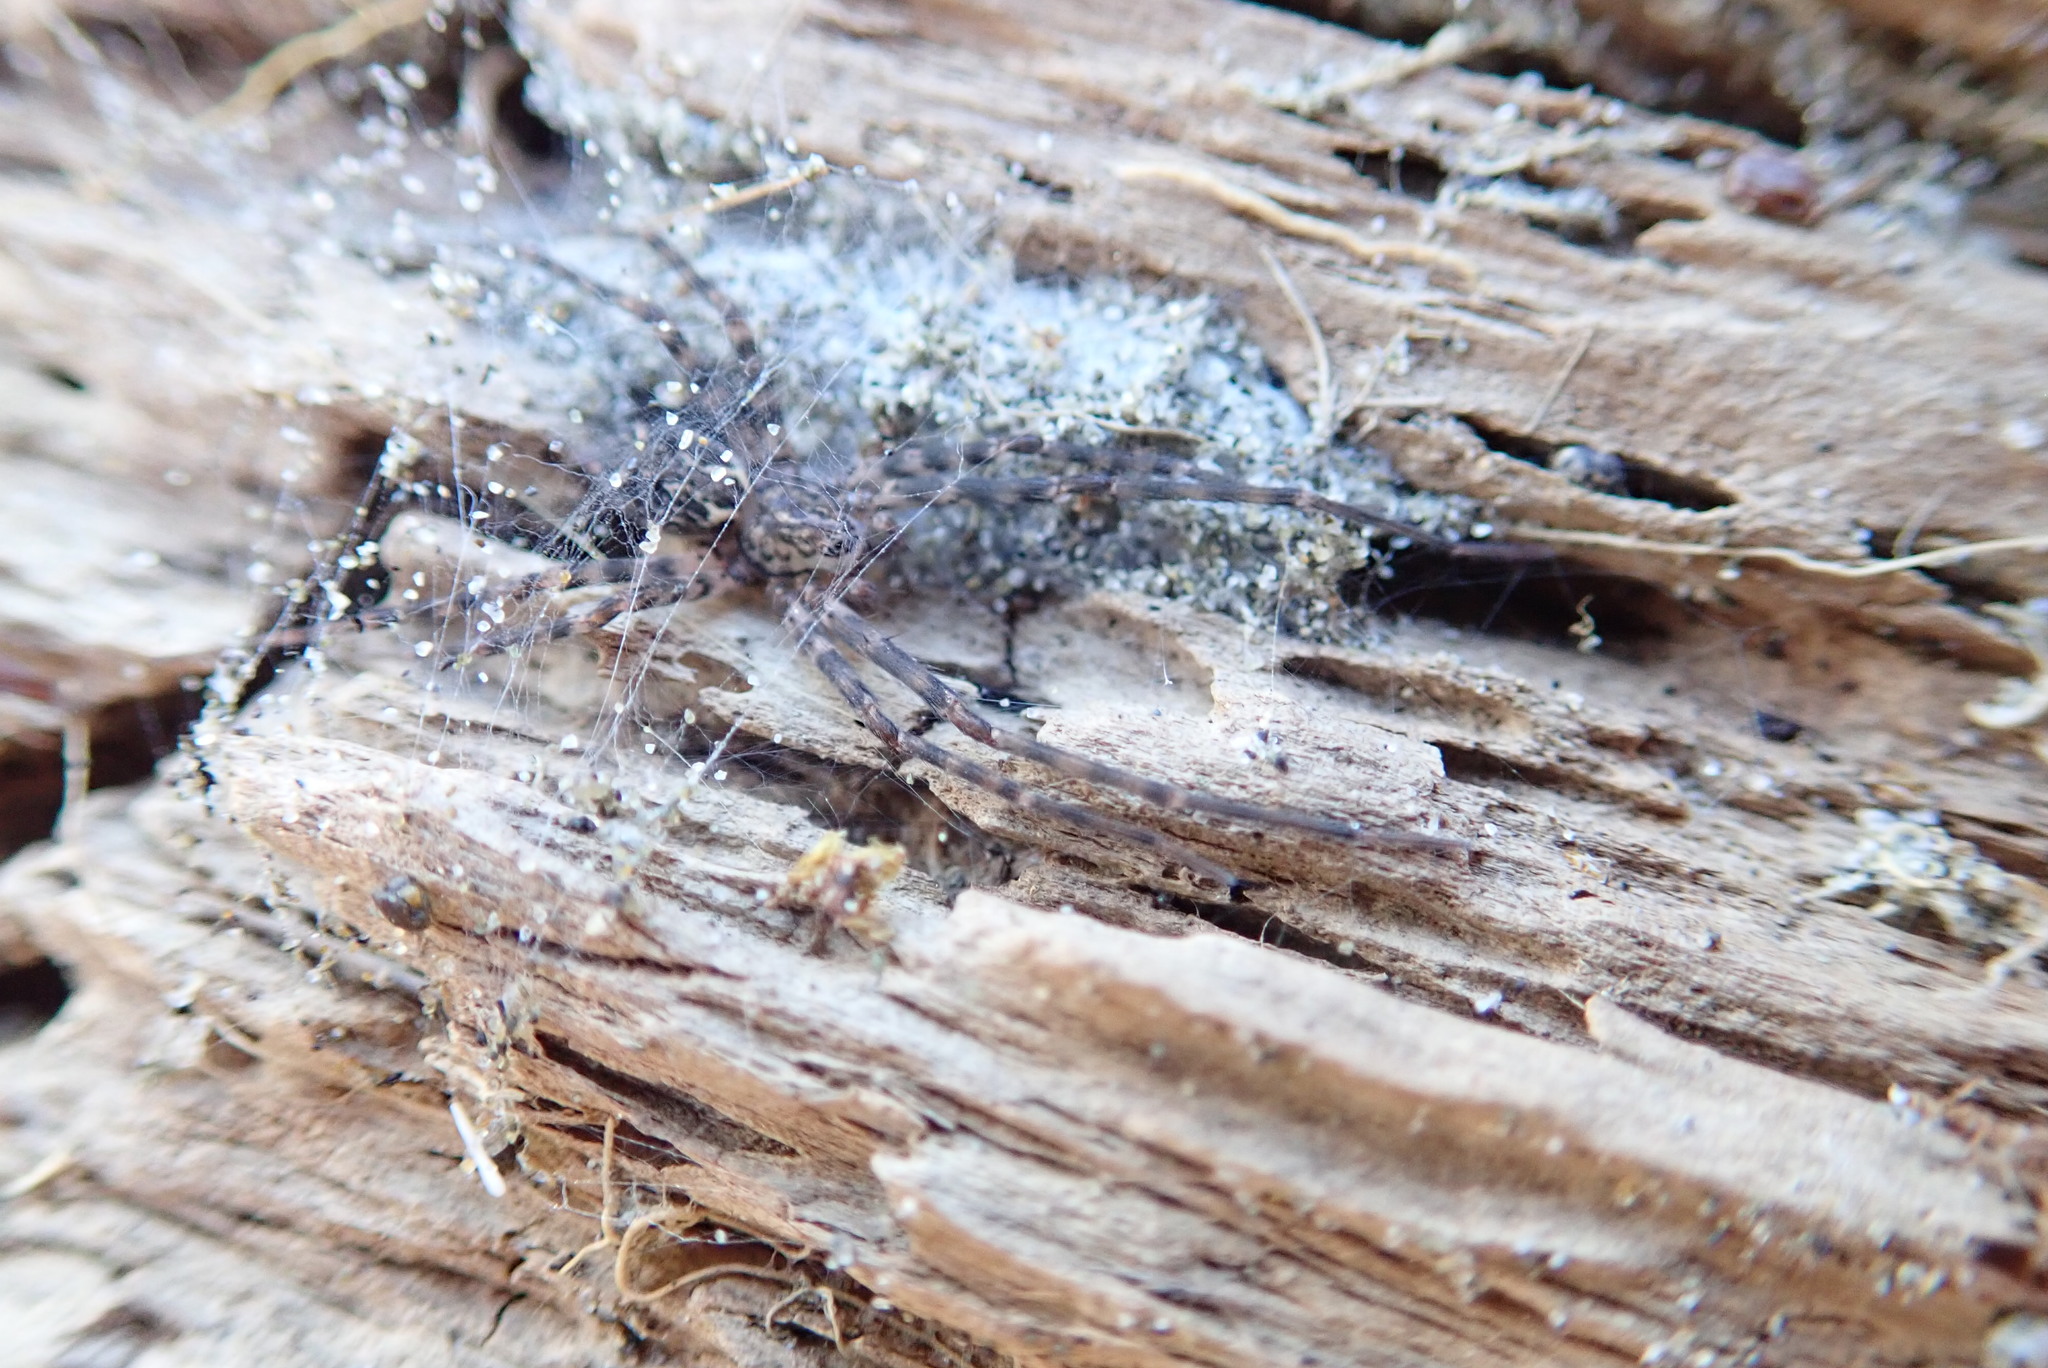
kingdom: Animalia
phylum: Arthropoda
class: Arachnida
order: Araneae
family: Stiphidiidae
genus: Stiphidion
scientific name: Stiphidion facetum
